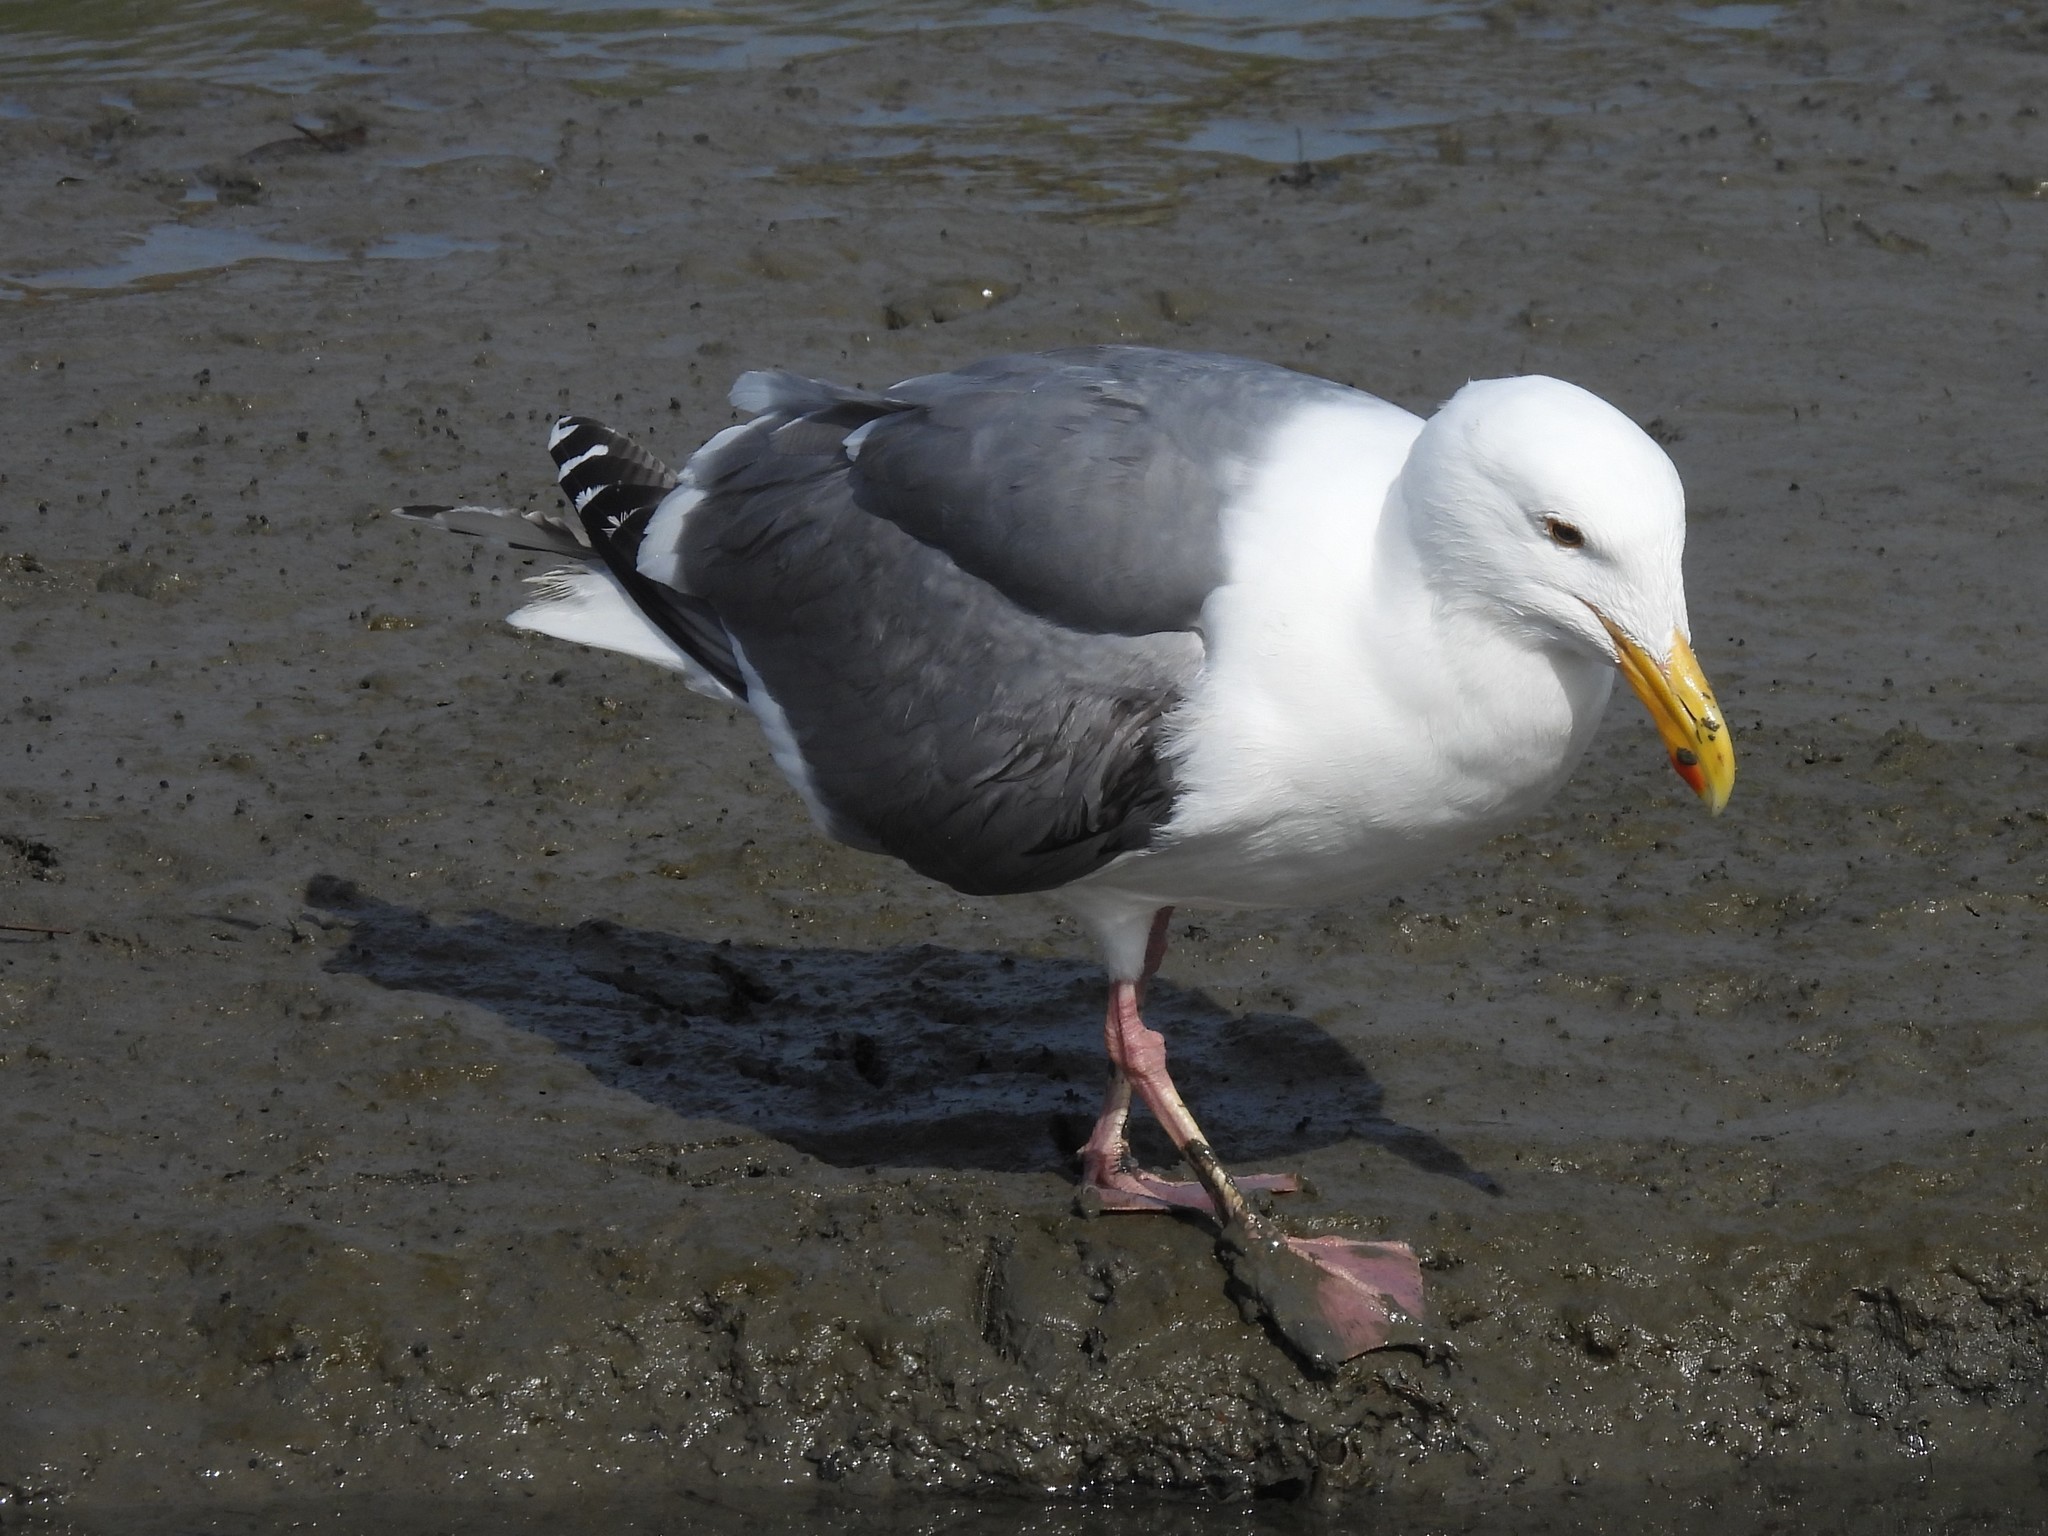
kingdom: Animalia
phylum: Chordata
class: Aves
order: Charadriiformes
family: Laridae
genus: Larus
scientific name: Larus occidentalis
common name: Western gull
